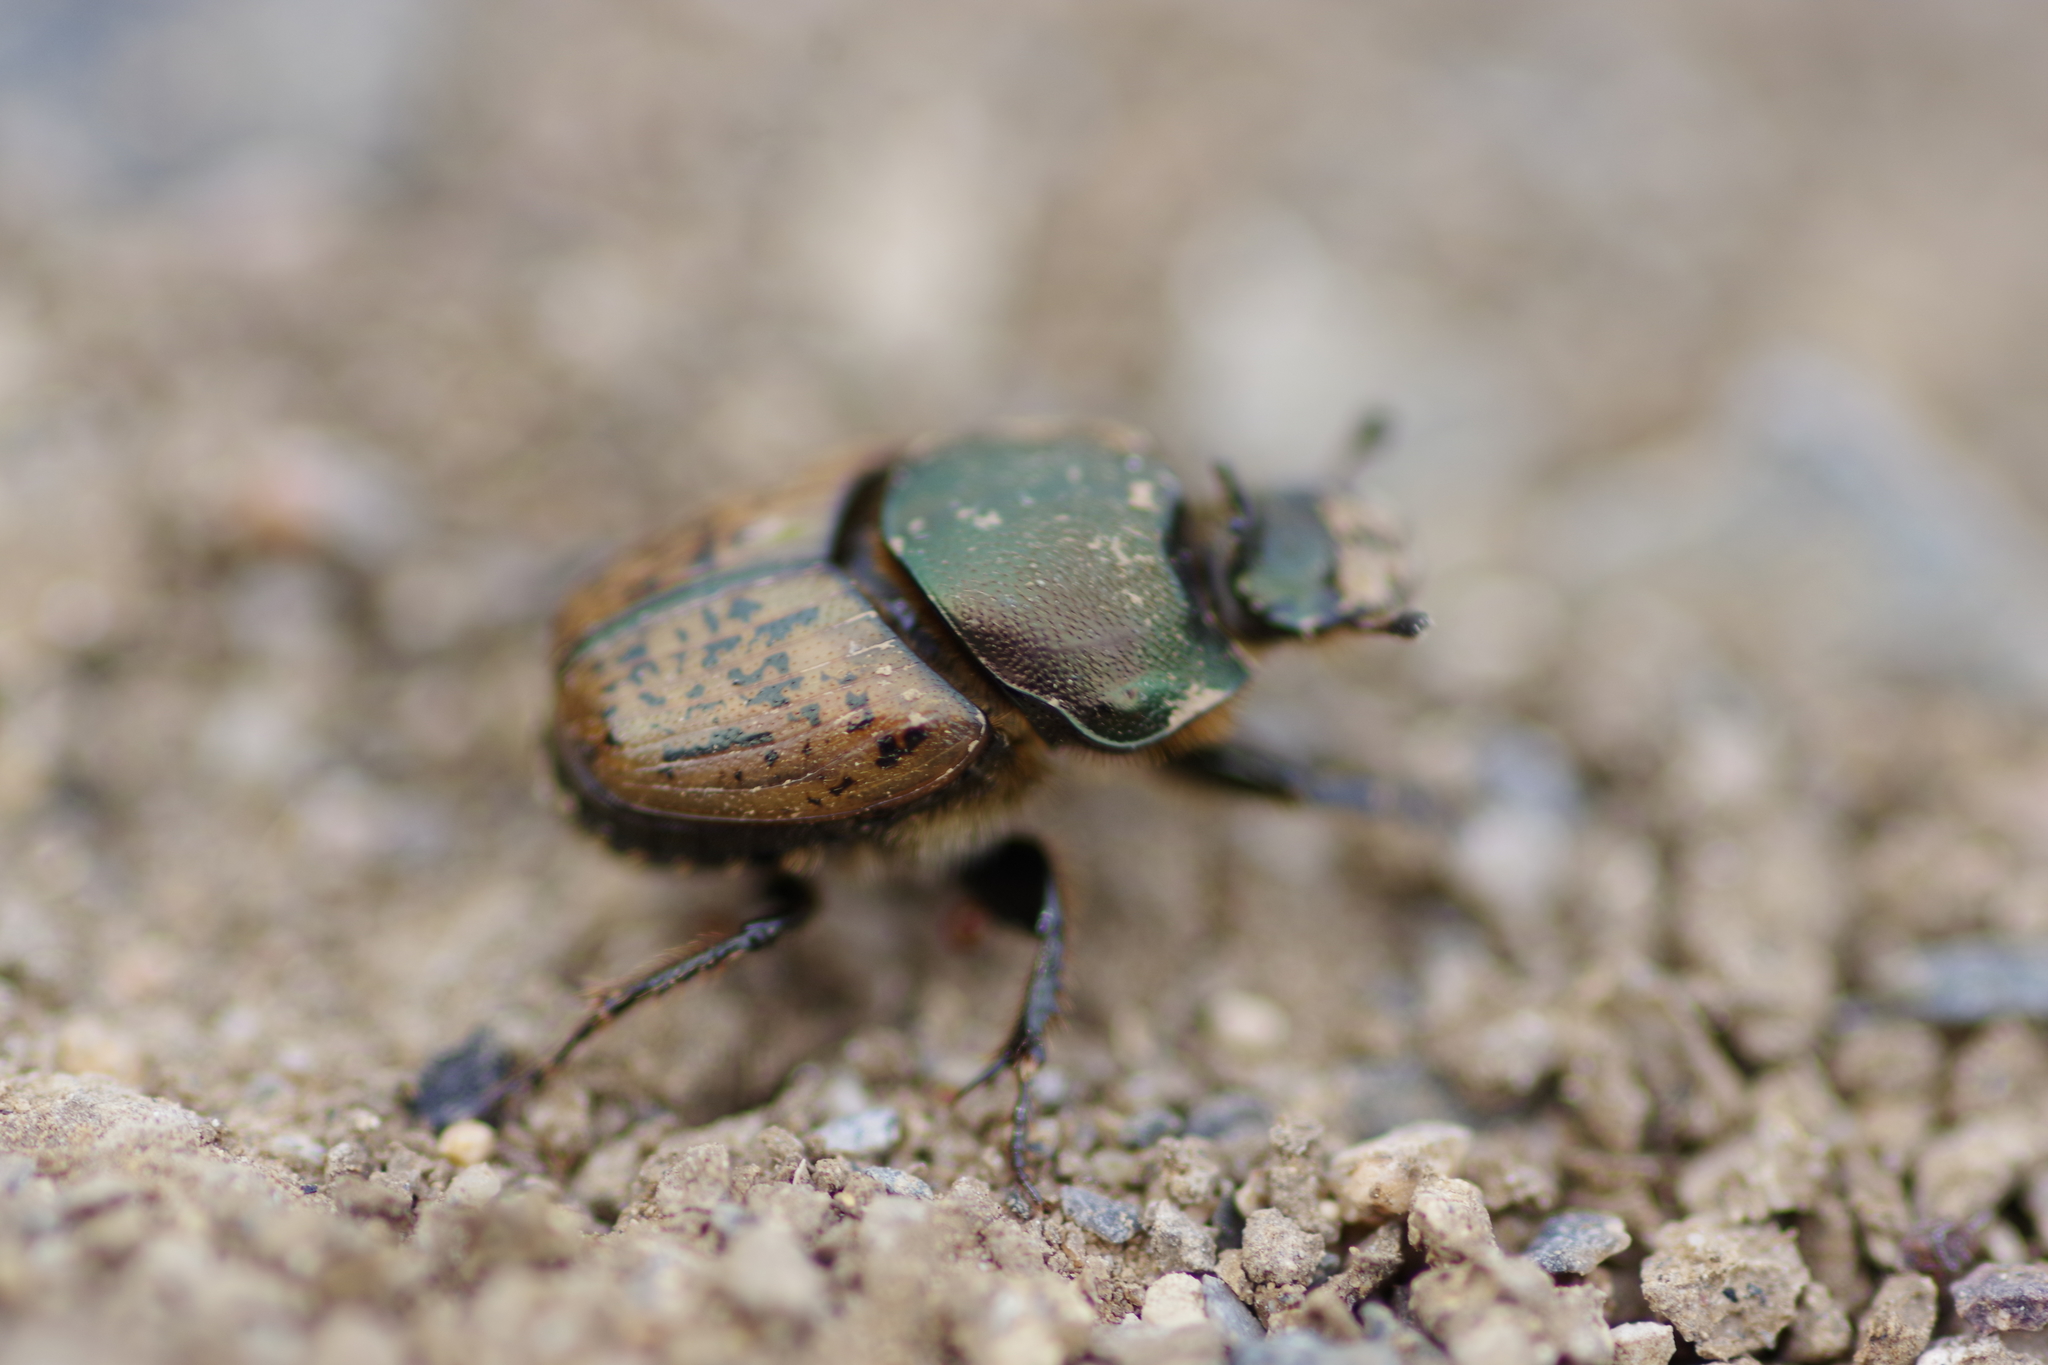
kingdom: Animalia
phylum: Arthropoda
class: Insecta
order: Coleoptera
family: Scarabaeidae
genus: Onthophagus
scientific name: Onthophagus vacca
